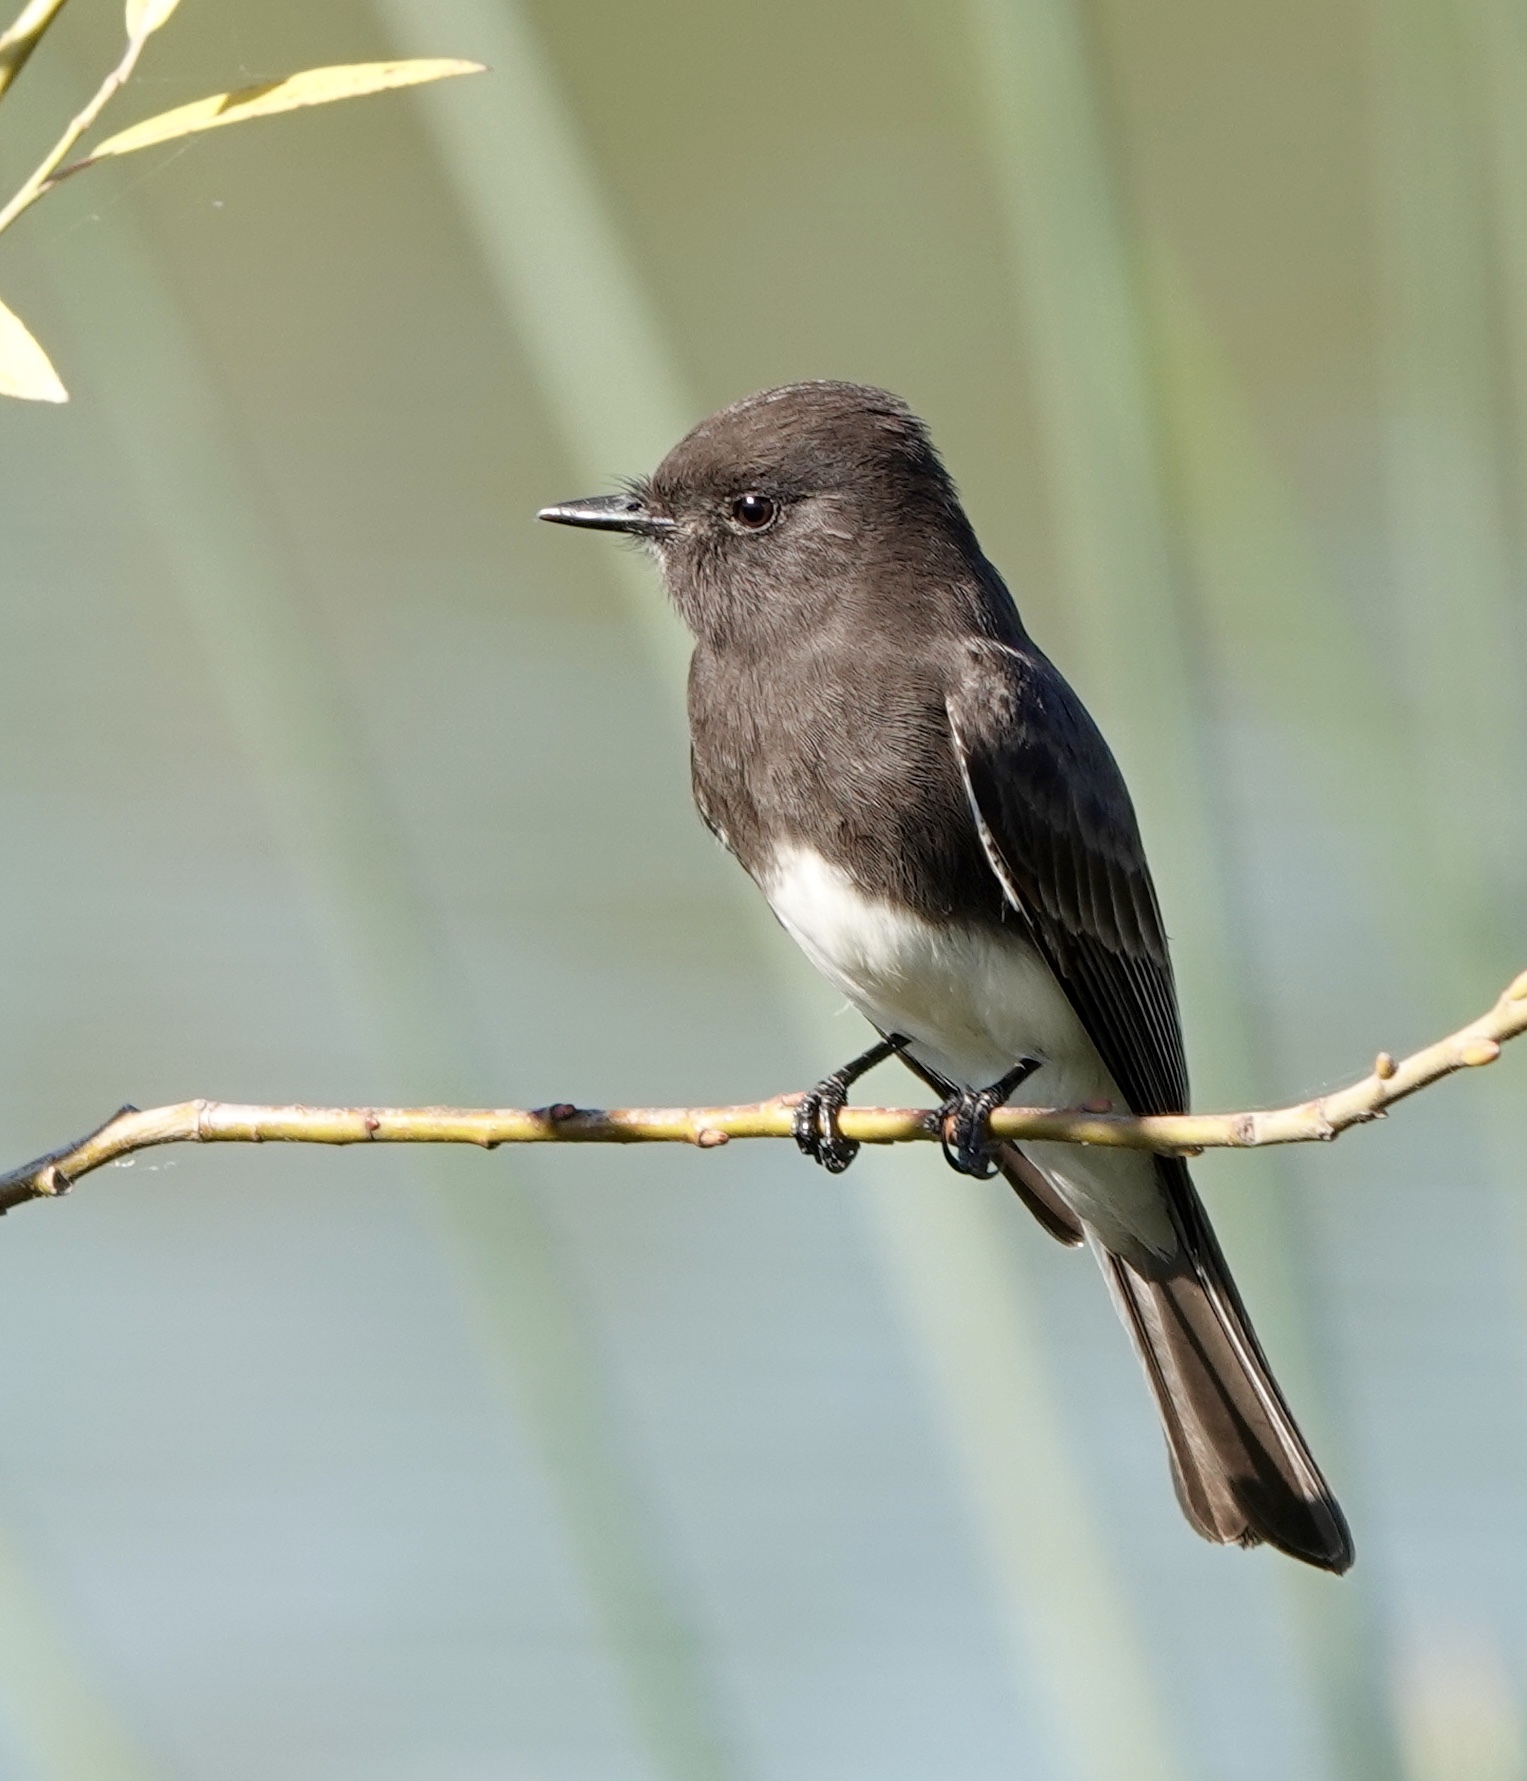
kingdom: Animalia
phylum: Chordata
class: Aves
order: Passeriformes
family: Tyrannidae
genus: Sayornis
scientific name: Sayornis nigricans
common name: Black phoebe
